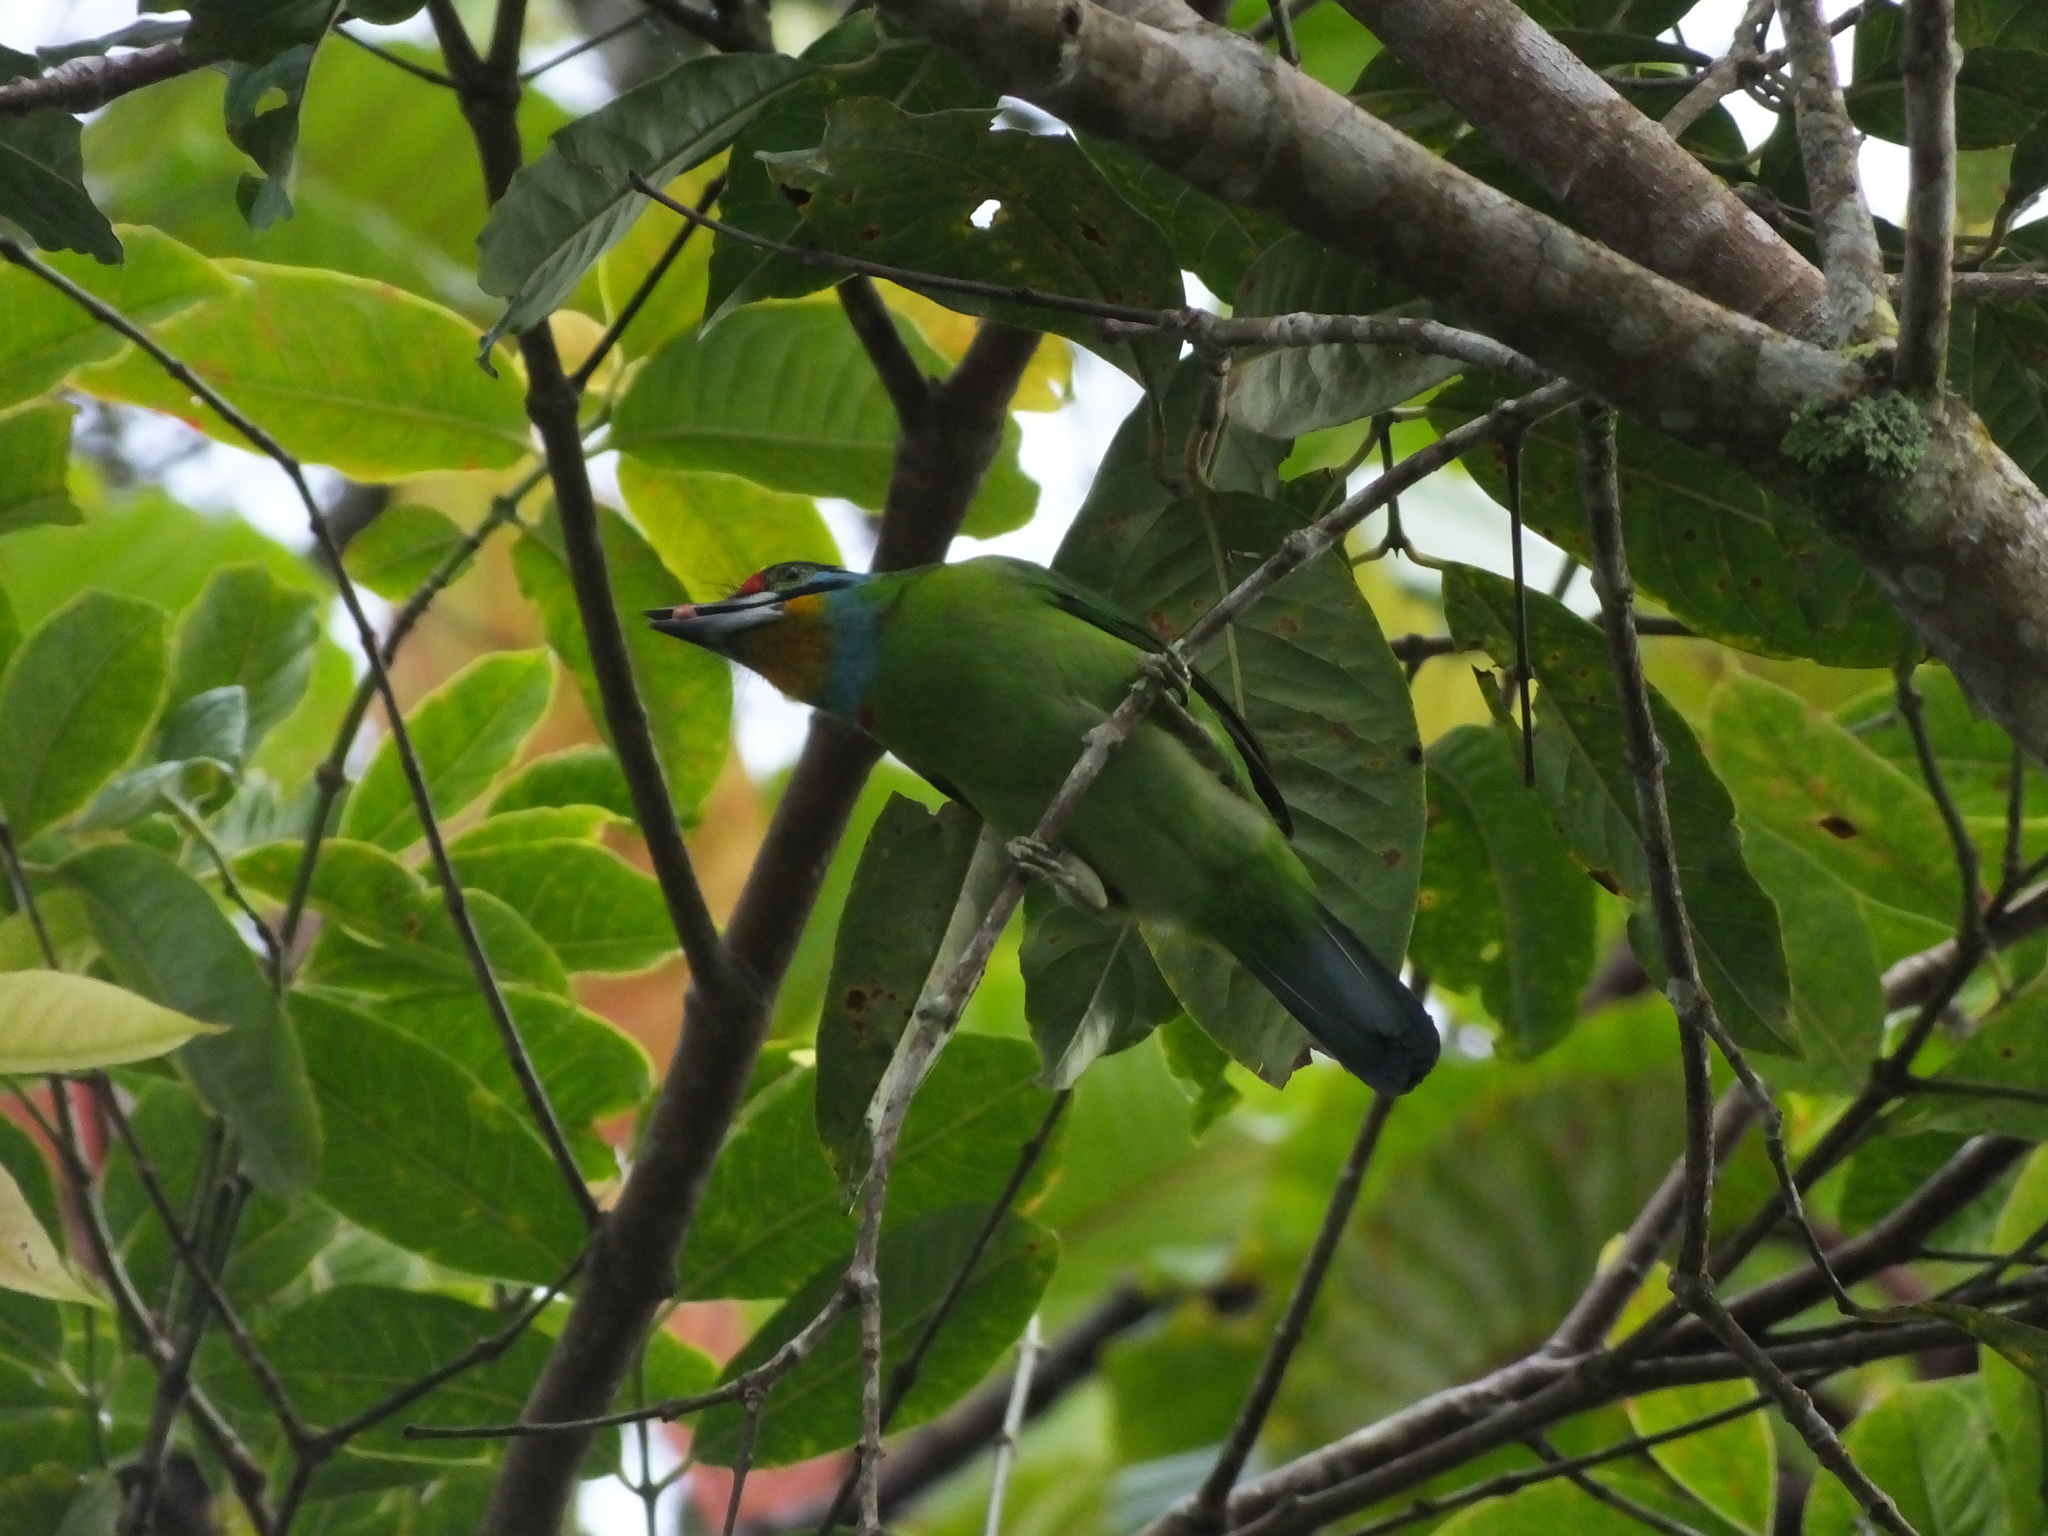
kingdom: Animalia
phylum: Chordata
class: Aves
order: Piciformes
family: Megalaimidae
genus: Psilopogon
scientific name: Psilopogon oorti
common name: Black-browed barbet
